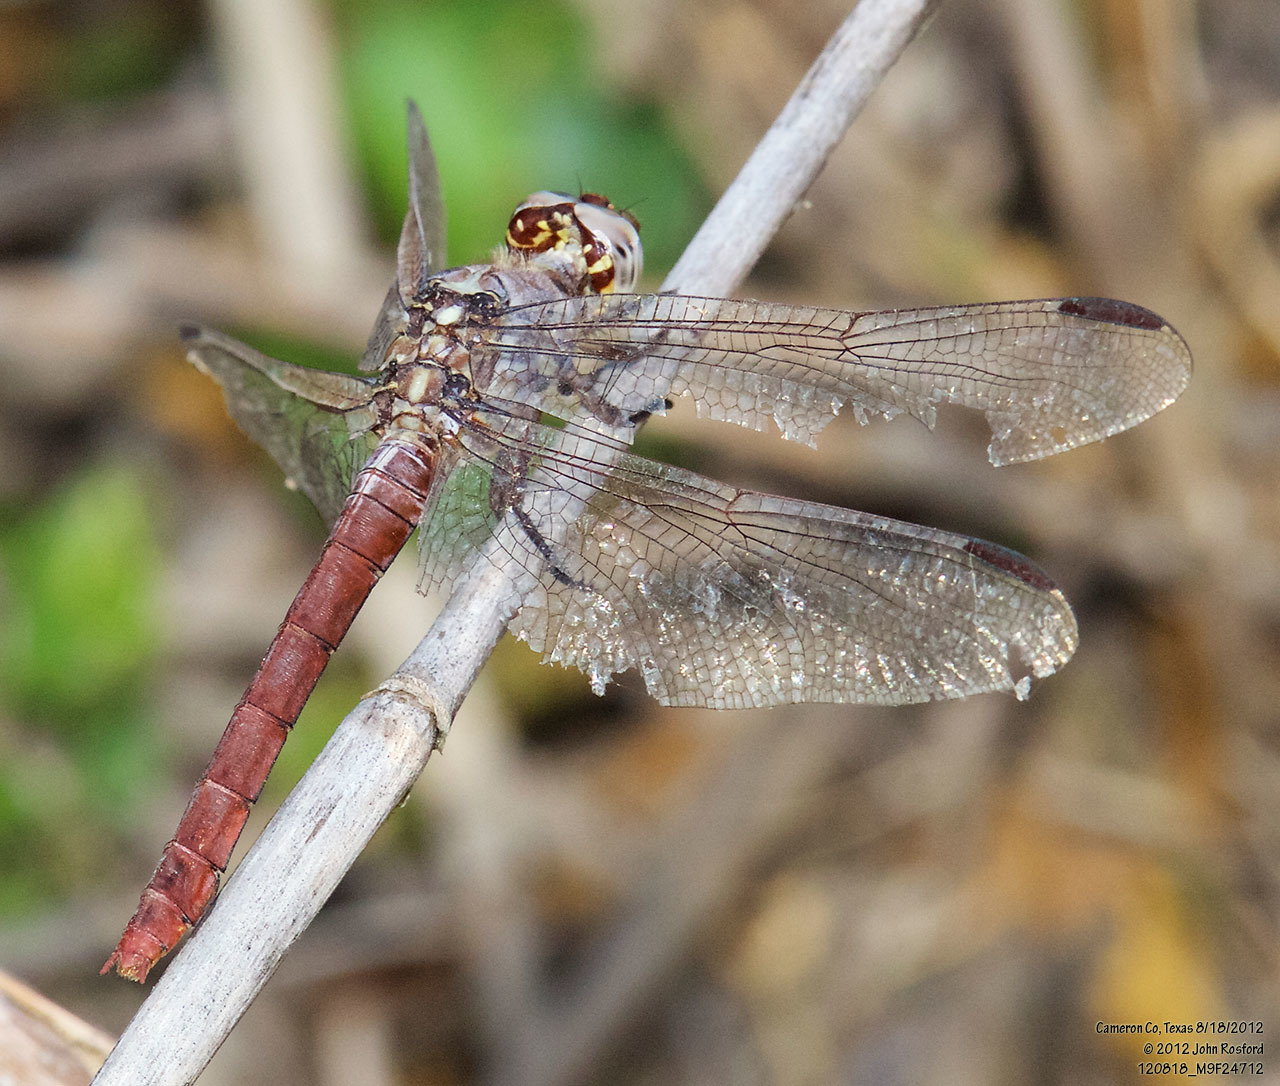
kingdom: Animalia
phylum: Arthropoda
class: Insecta
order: Odonata
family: Libellulidae
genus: Orthemis
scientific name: Orthemis ferruginea
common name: Roseate skimmer
